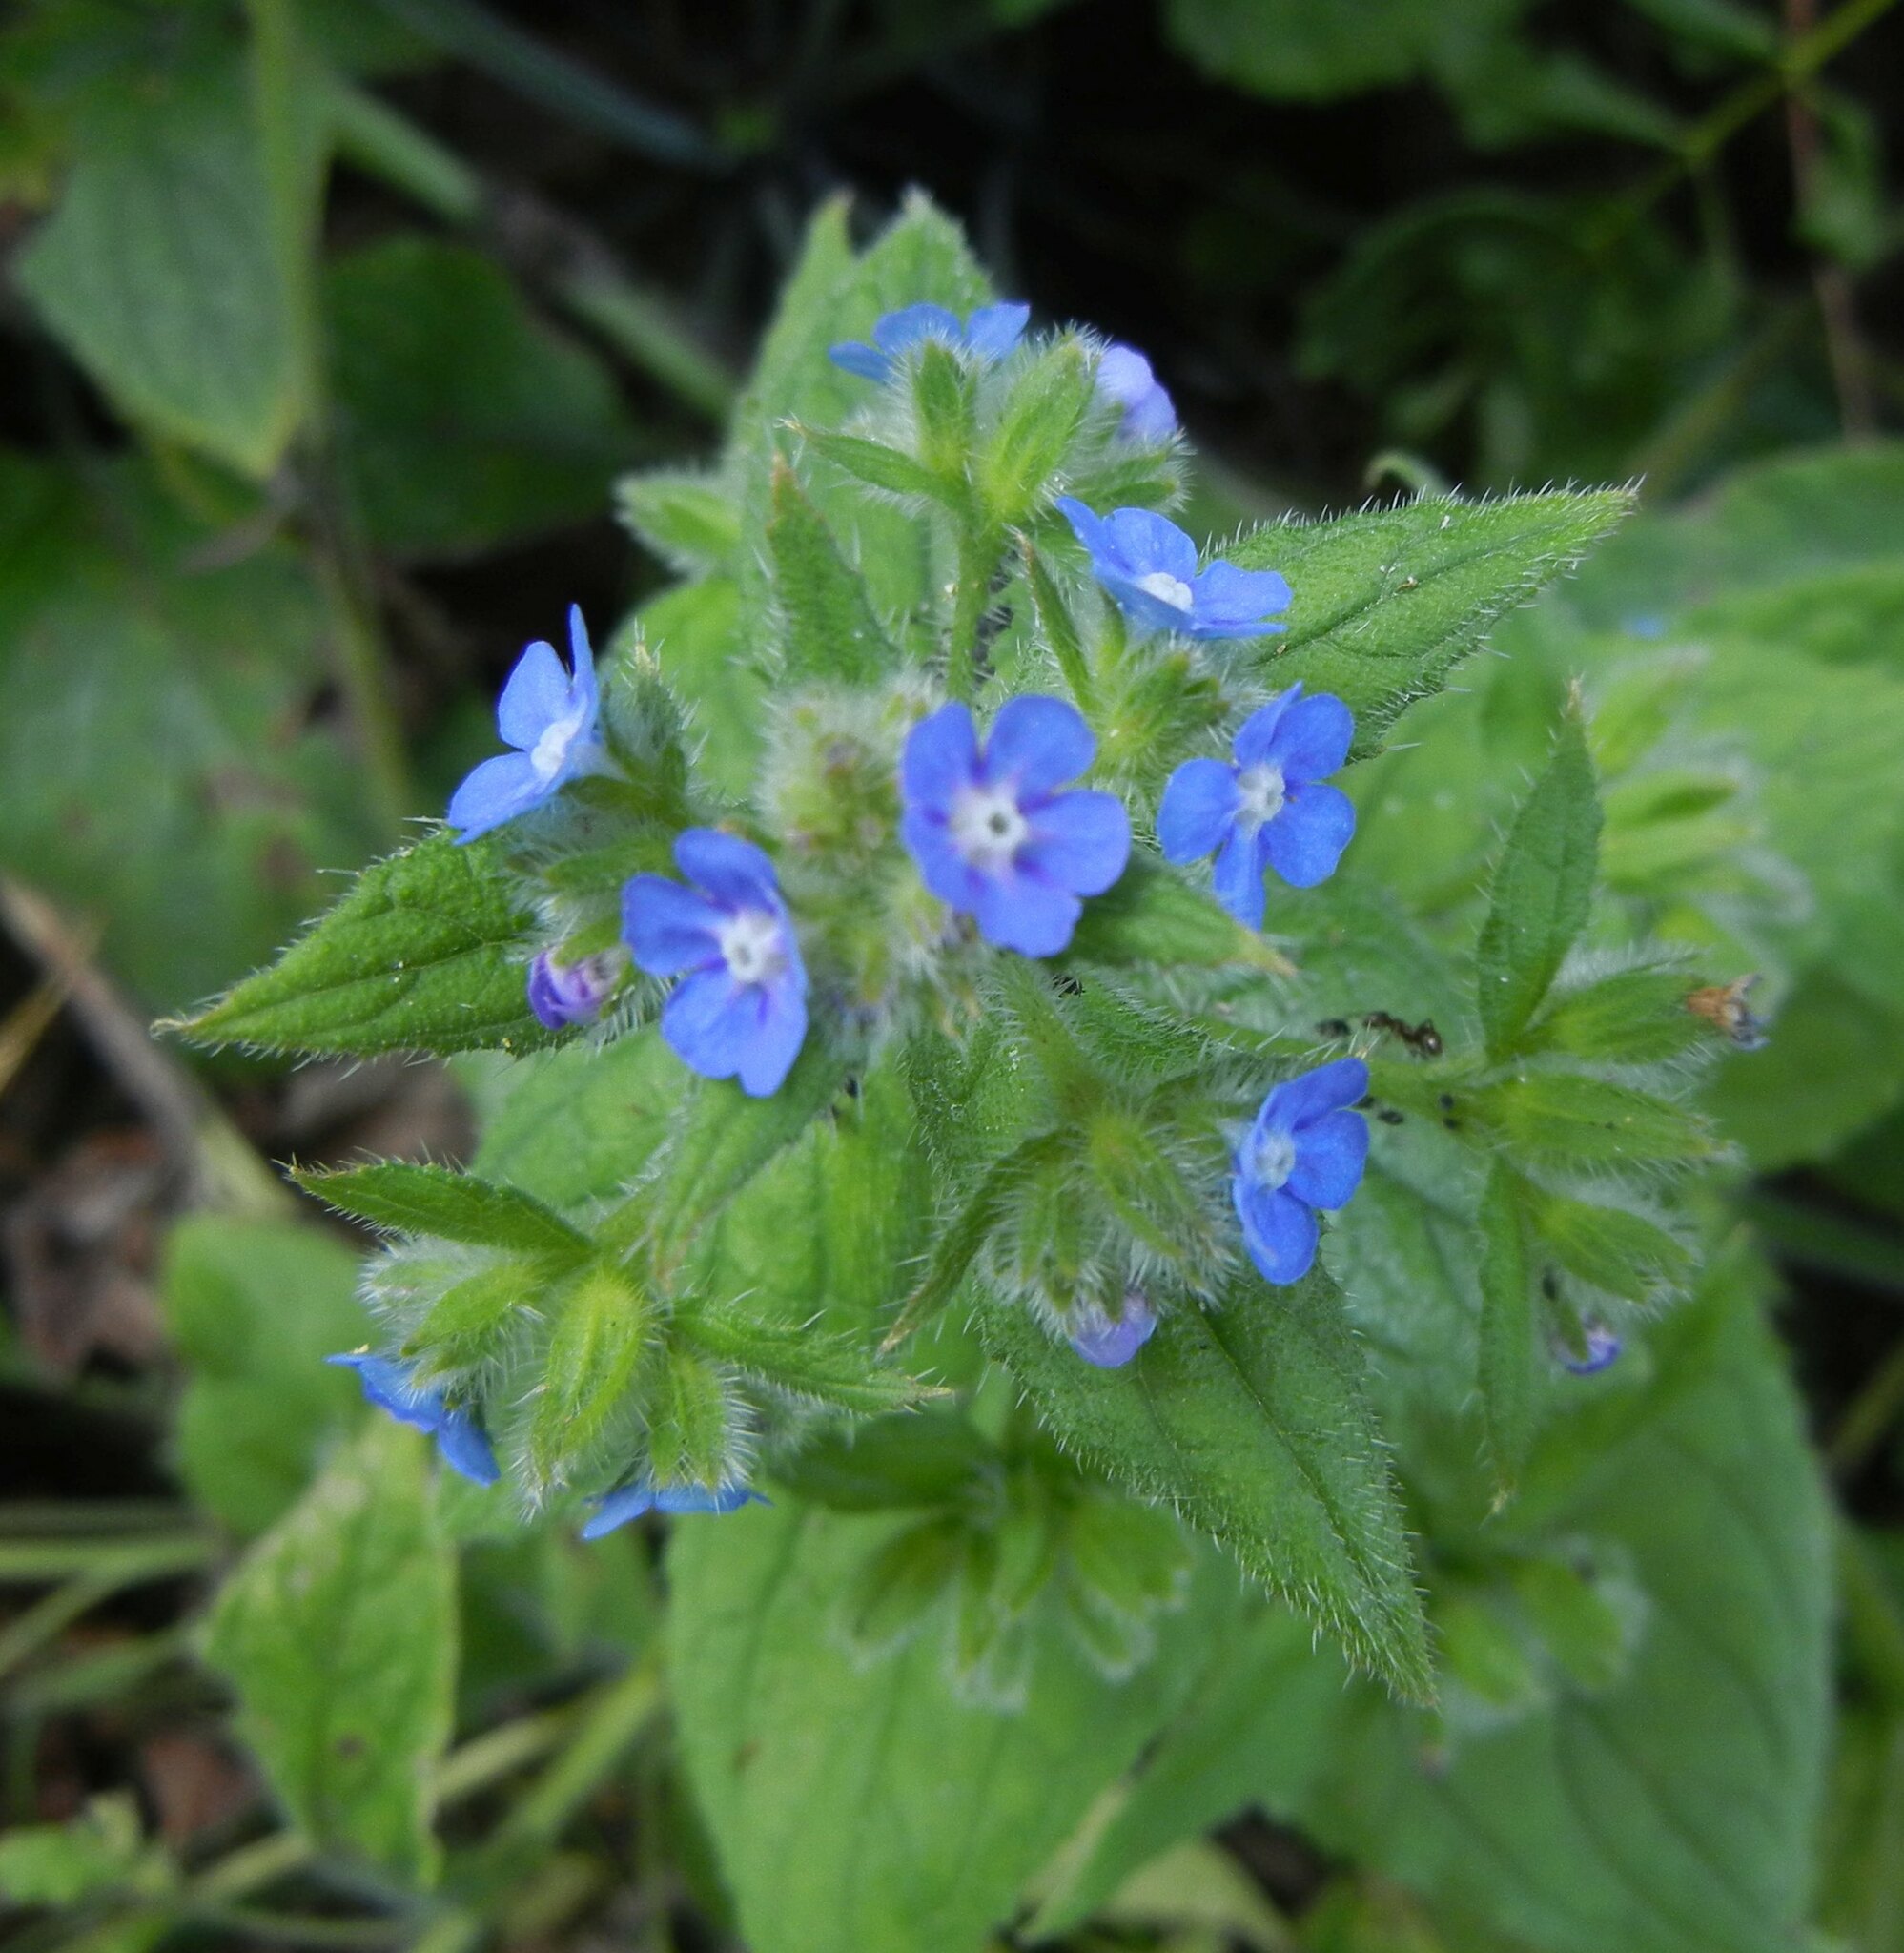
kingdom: Plantae
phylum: Tracheophyta
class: Magnoliopsida
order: Boraginales
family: Boraginaceae
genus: Pentaglottis
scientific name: Pentaglottis sempervirens
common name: Green alkanet
